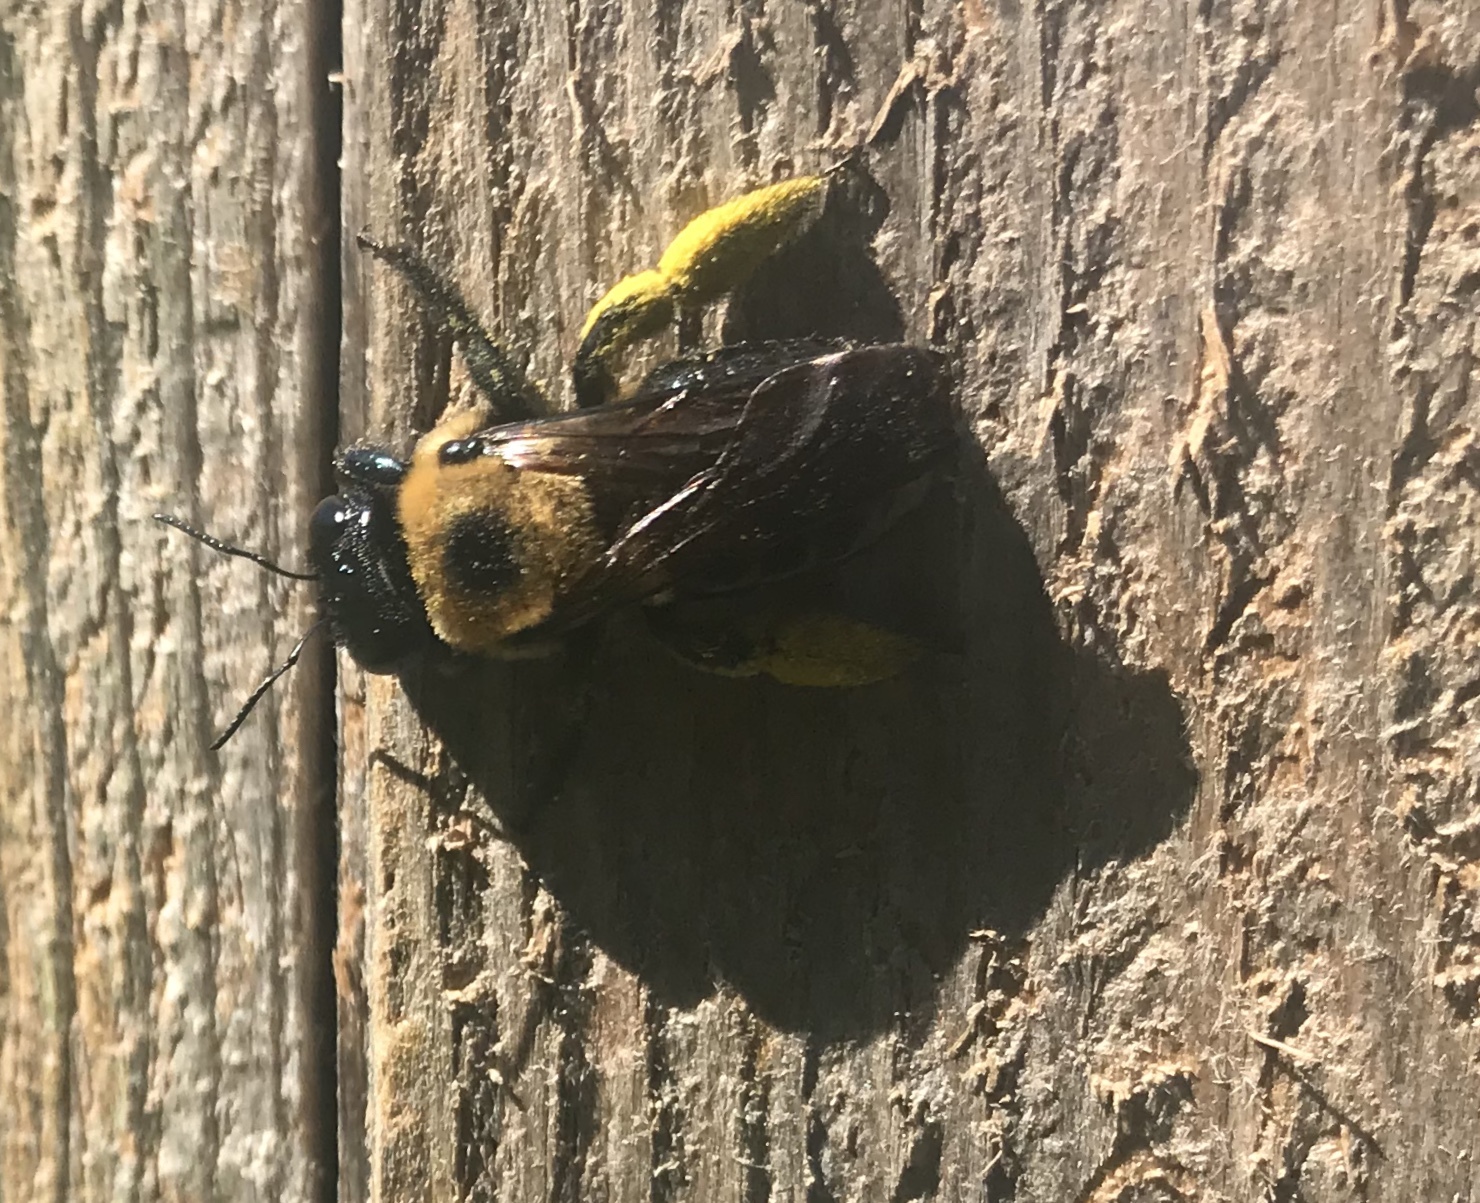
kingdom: Animalia
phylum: Arthropoda
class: Insecta
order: Hymenoptera
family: Apidae
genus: Xylocopa
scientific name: Xylocopa virginica
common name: Carpenter bee
